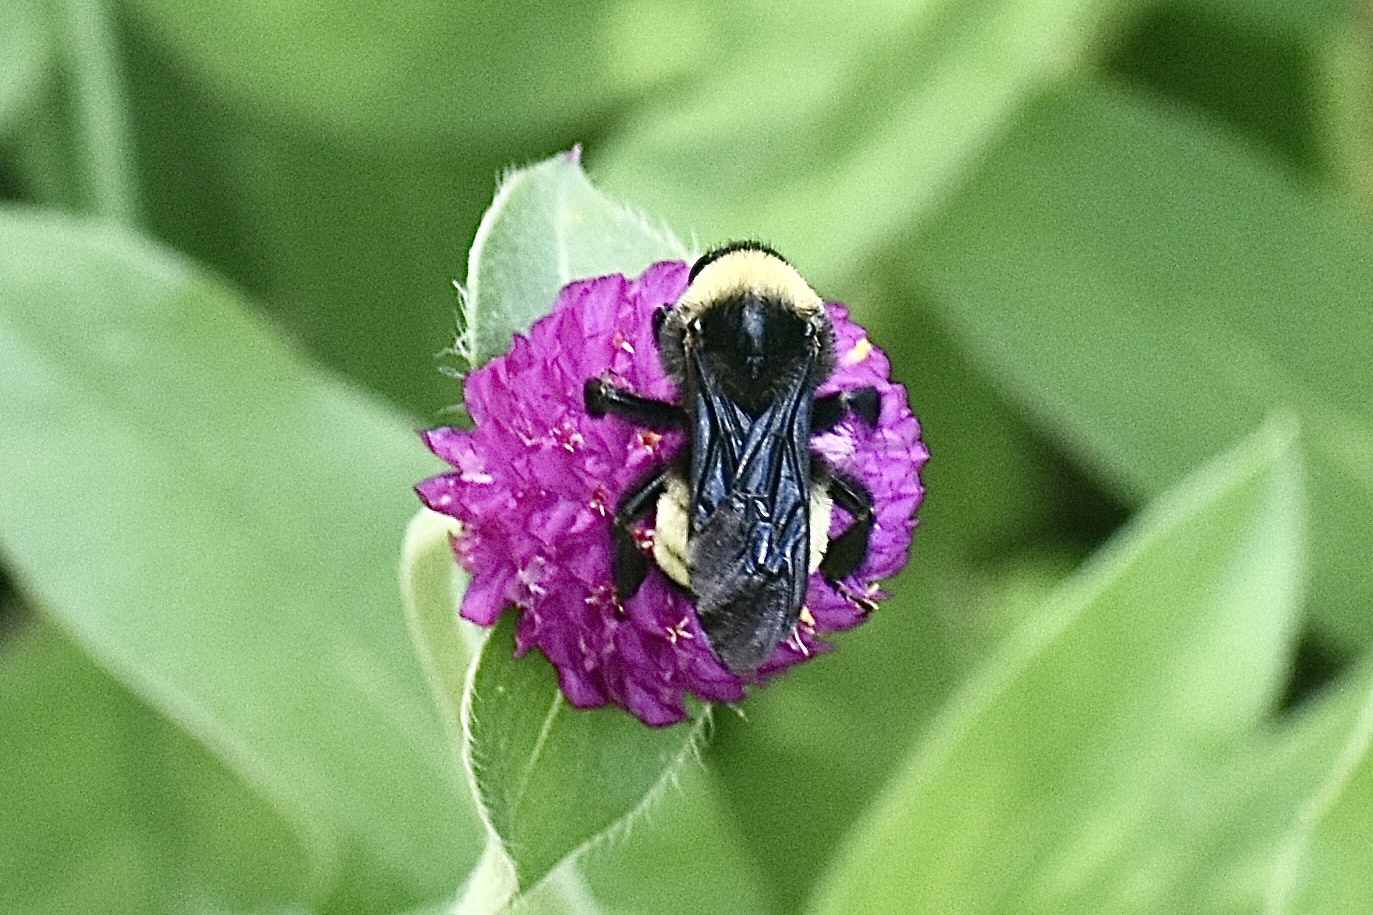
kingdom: Animalia
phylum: Arthropoda
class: Insecta
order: Hymenoptera
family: Apidae
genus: Bombus
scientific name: Bombus pensylvanicus
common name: Bumble bee
